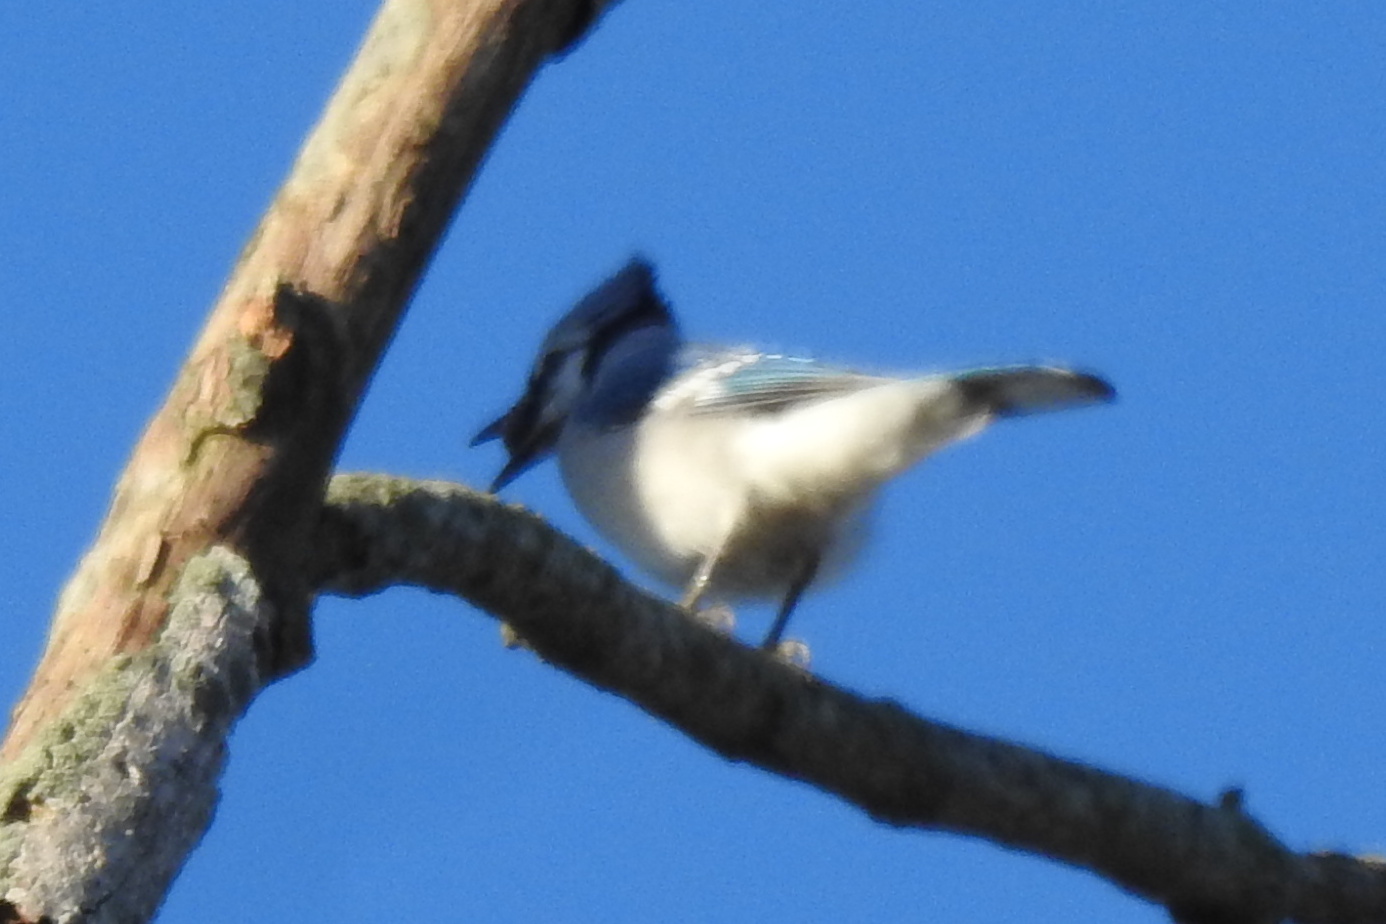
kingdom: Animalia
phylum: Chordata
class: Aves
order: Passeriformes
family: Corvidae
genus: Cyanocitta
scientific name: Cyanocitta cristata
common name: Blue jay
